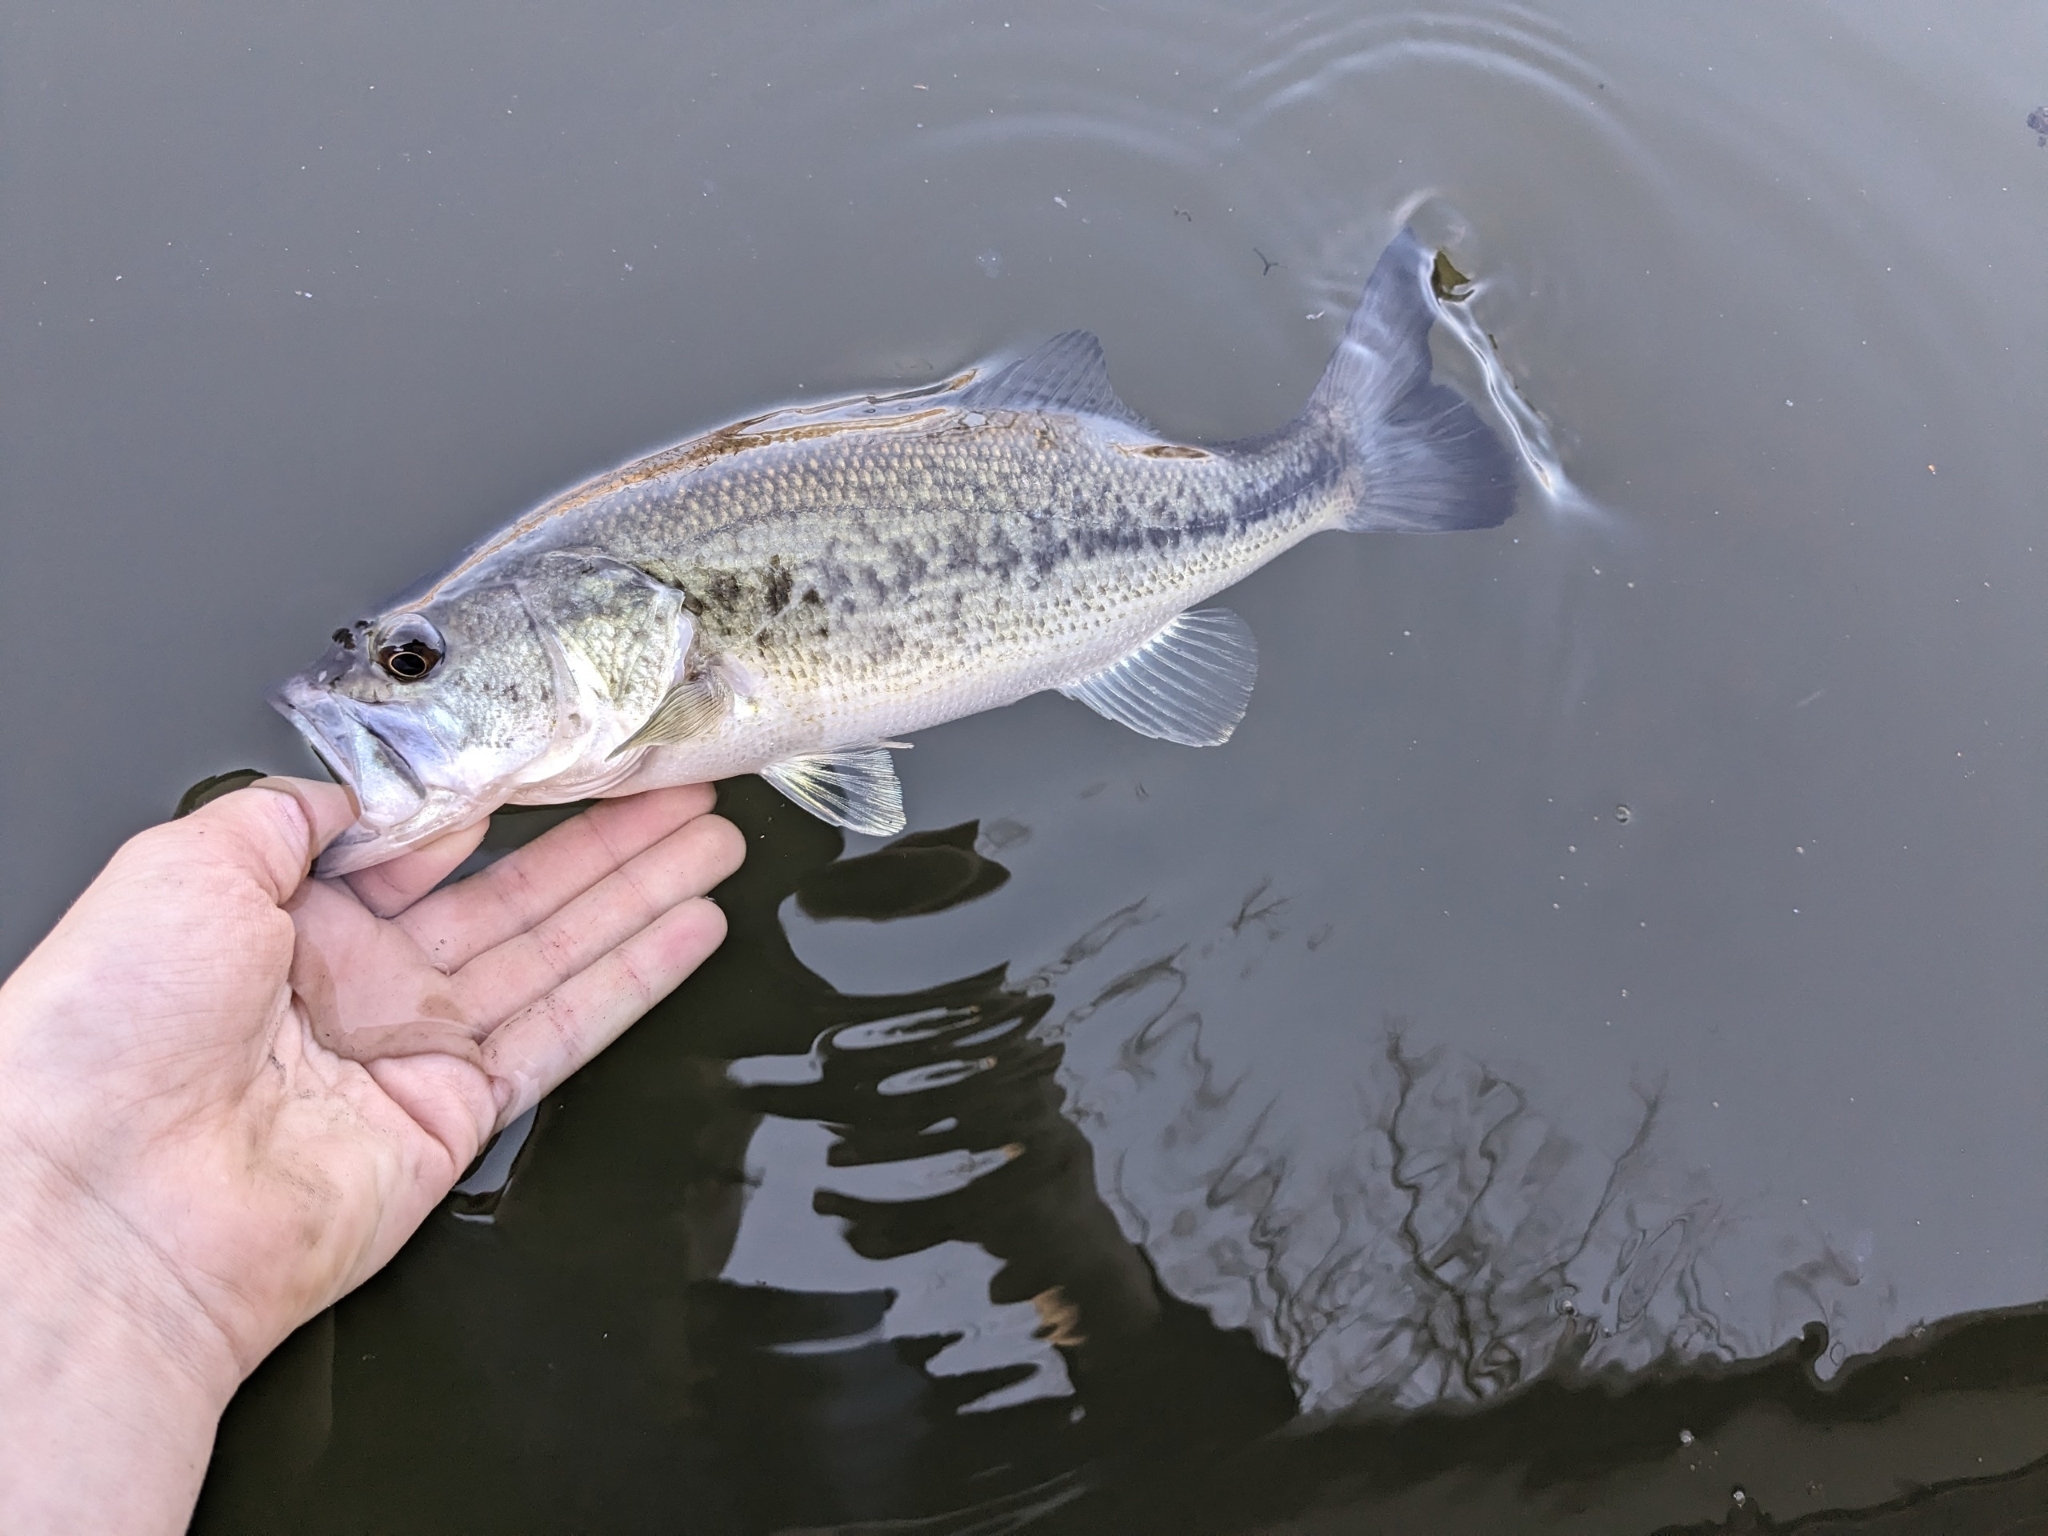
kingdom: Animalia
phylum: Chordata
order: Perciformes
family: Centrarchidae
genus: Micropterus
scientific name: Micropterus
